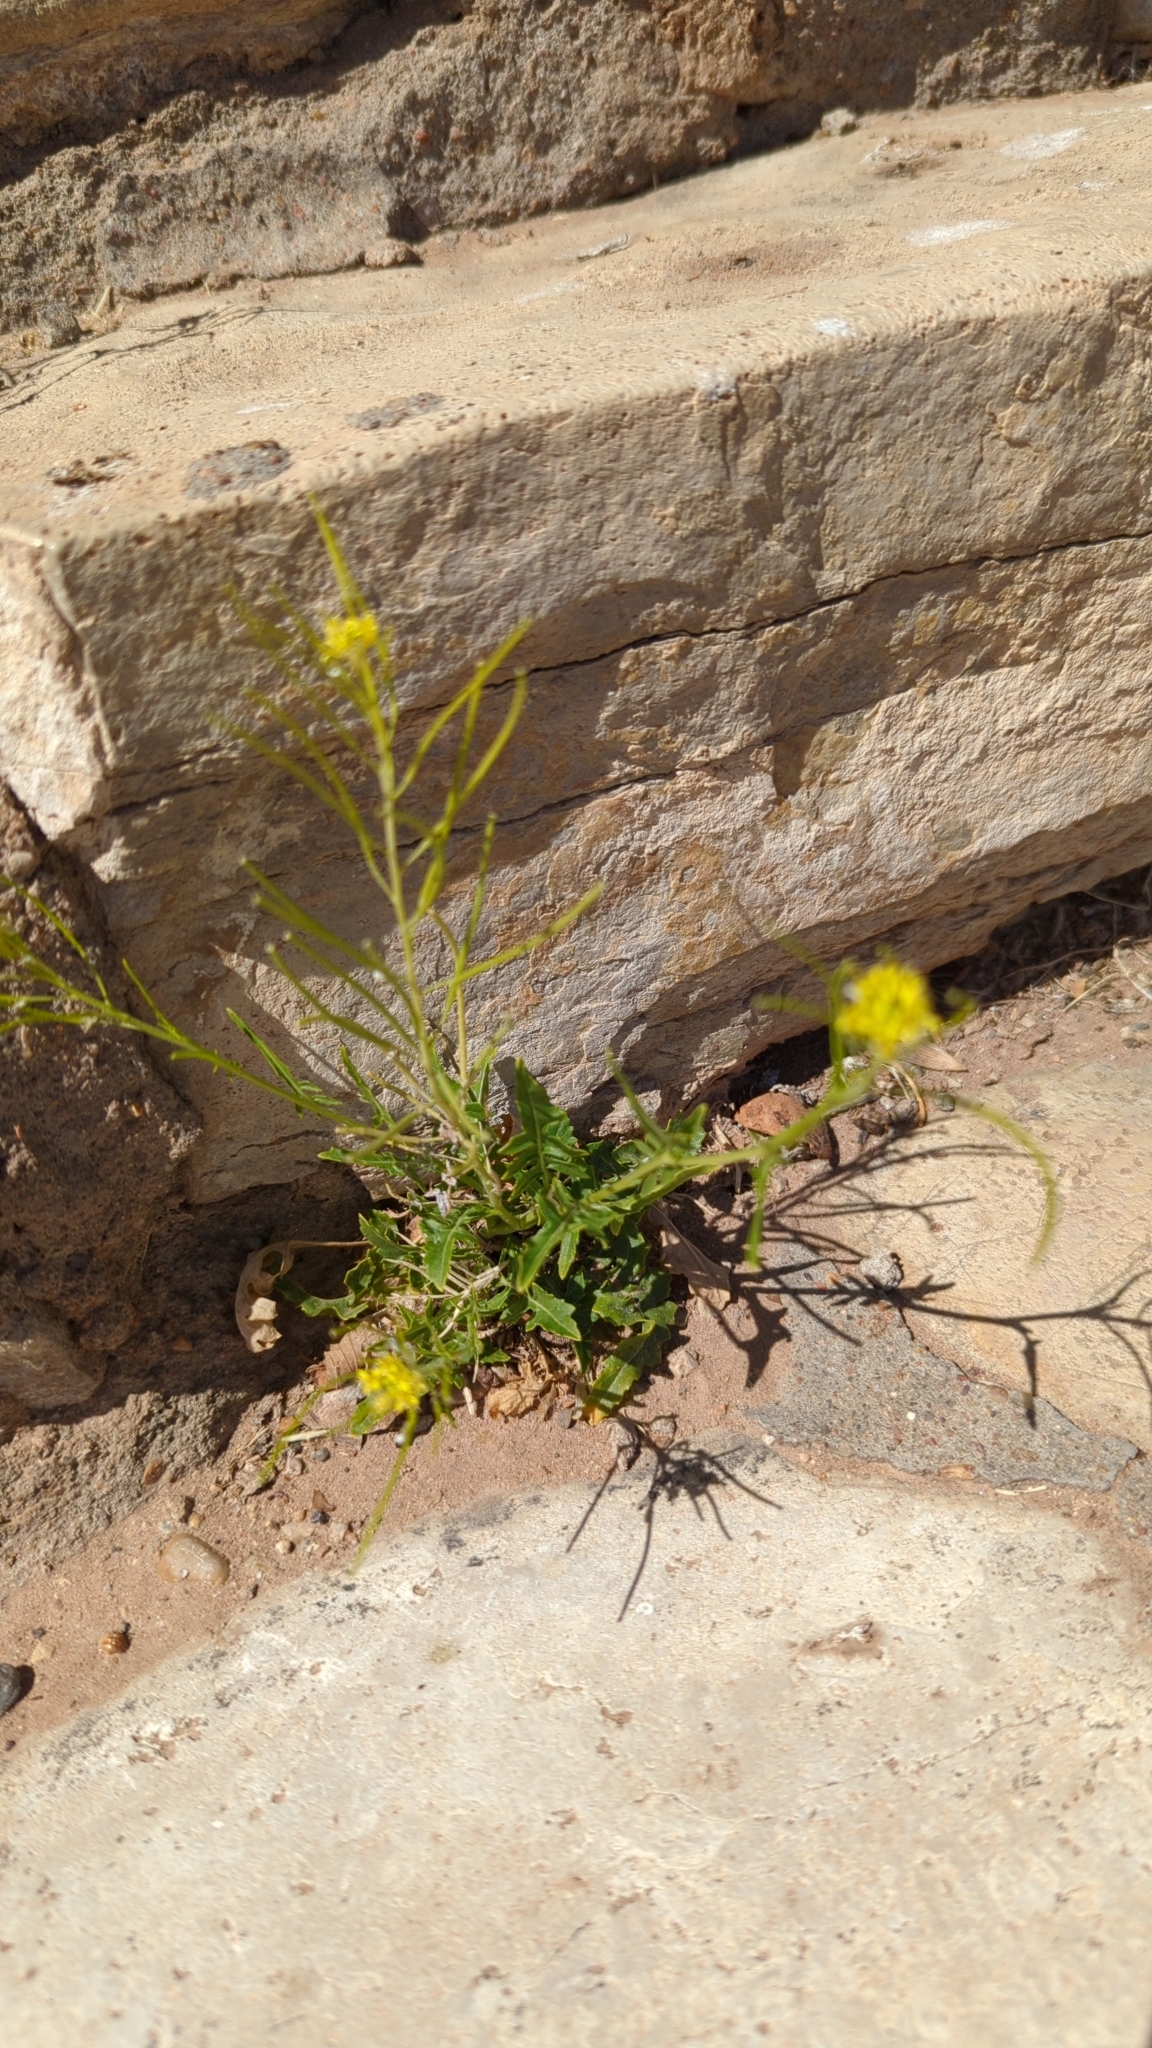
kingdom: Plantae
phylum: Tracheophyta
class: Magnoliopsida
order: Brassicales
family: Brassicaceae
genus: Sisymbrium
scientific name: Sisymbrium irio
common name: London rocket
